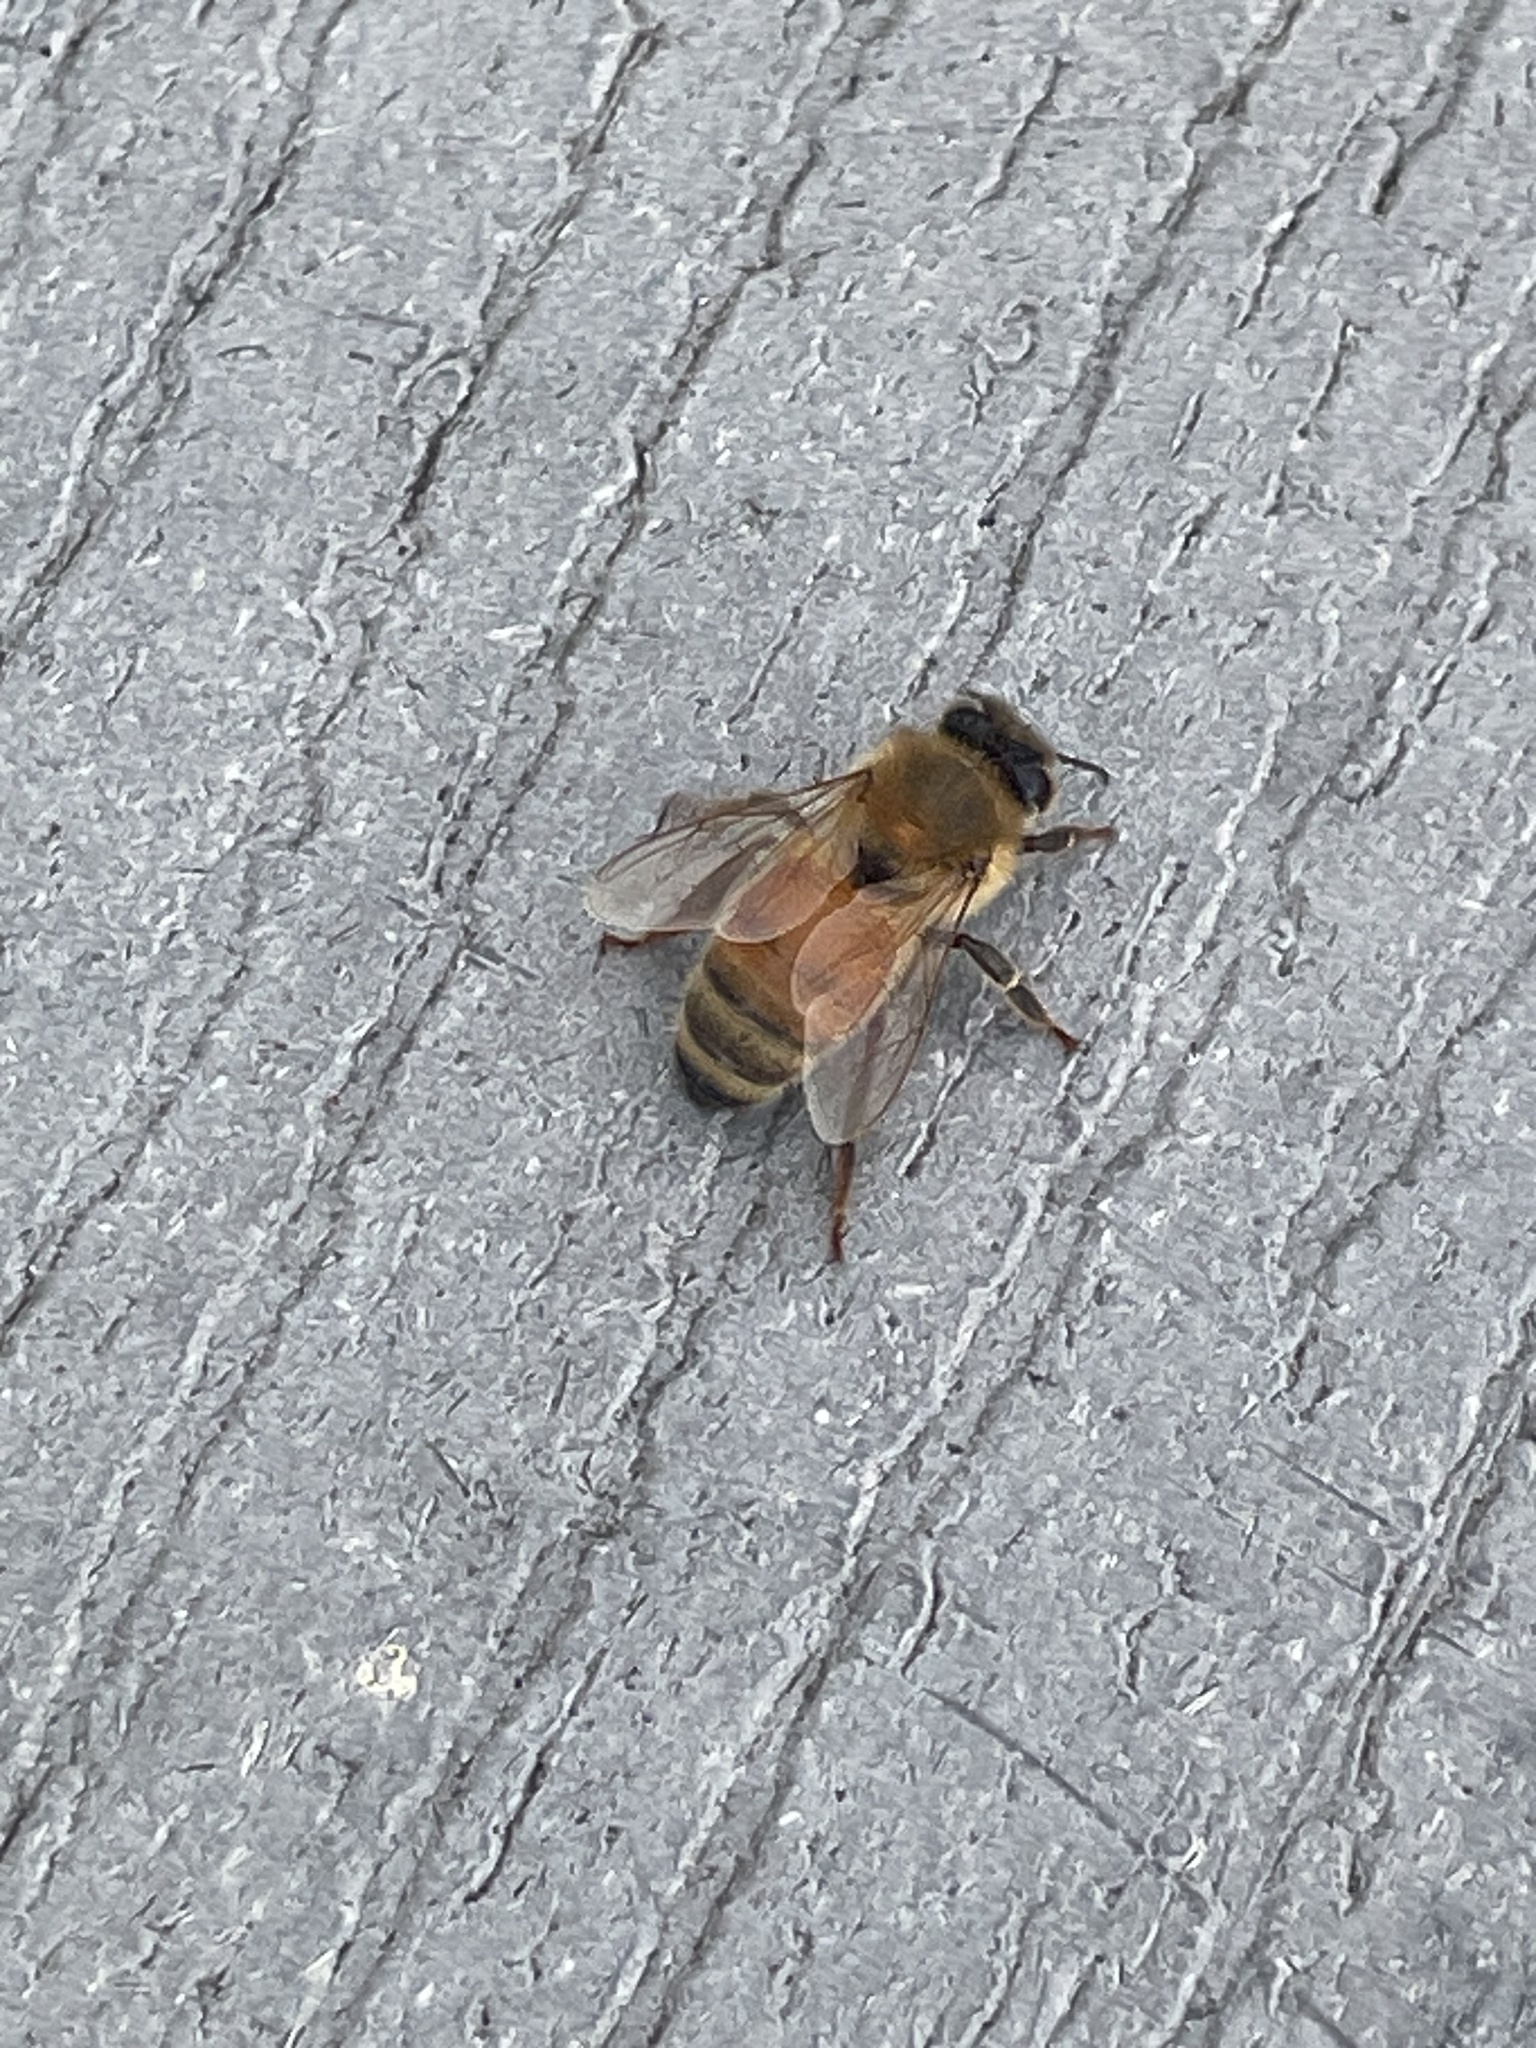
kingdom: Animalia
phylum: Arthropoda
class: Insecta
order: Hymenoptera
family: Apidae
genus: Apis
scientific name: Apis mellifera
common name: Honey bee
